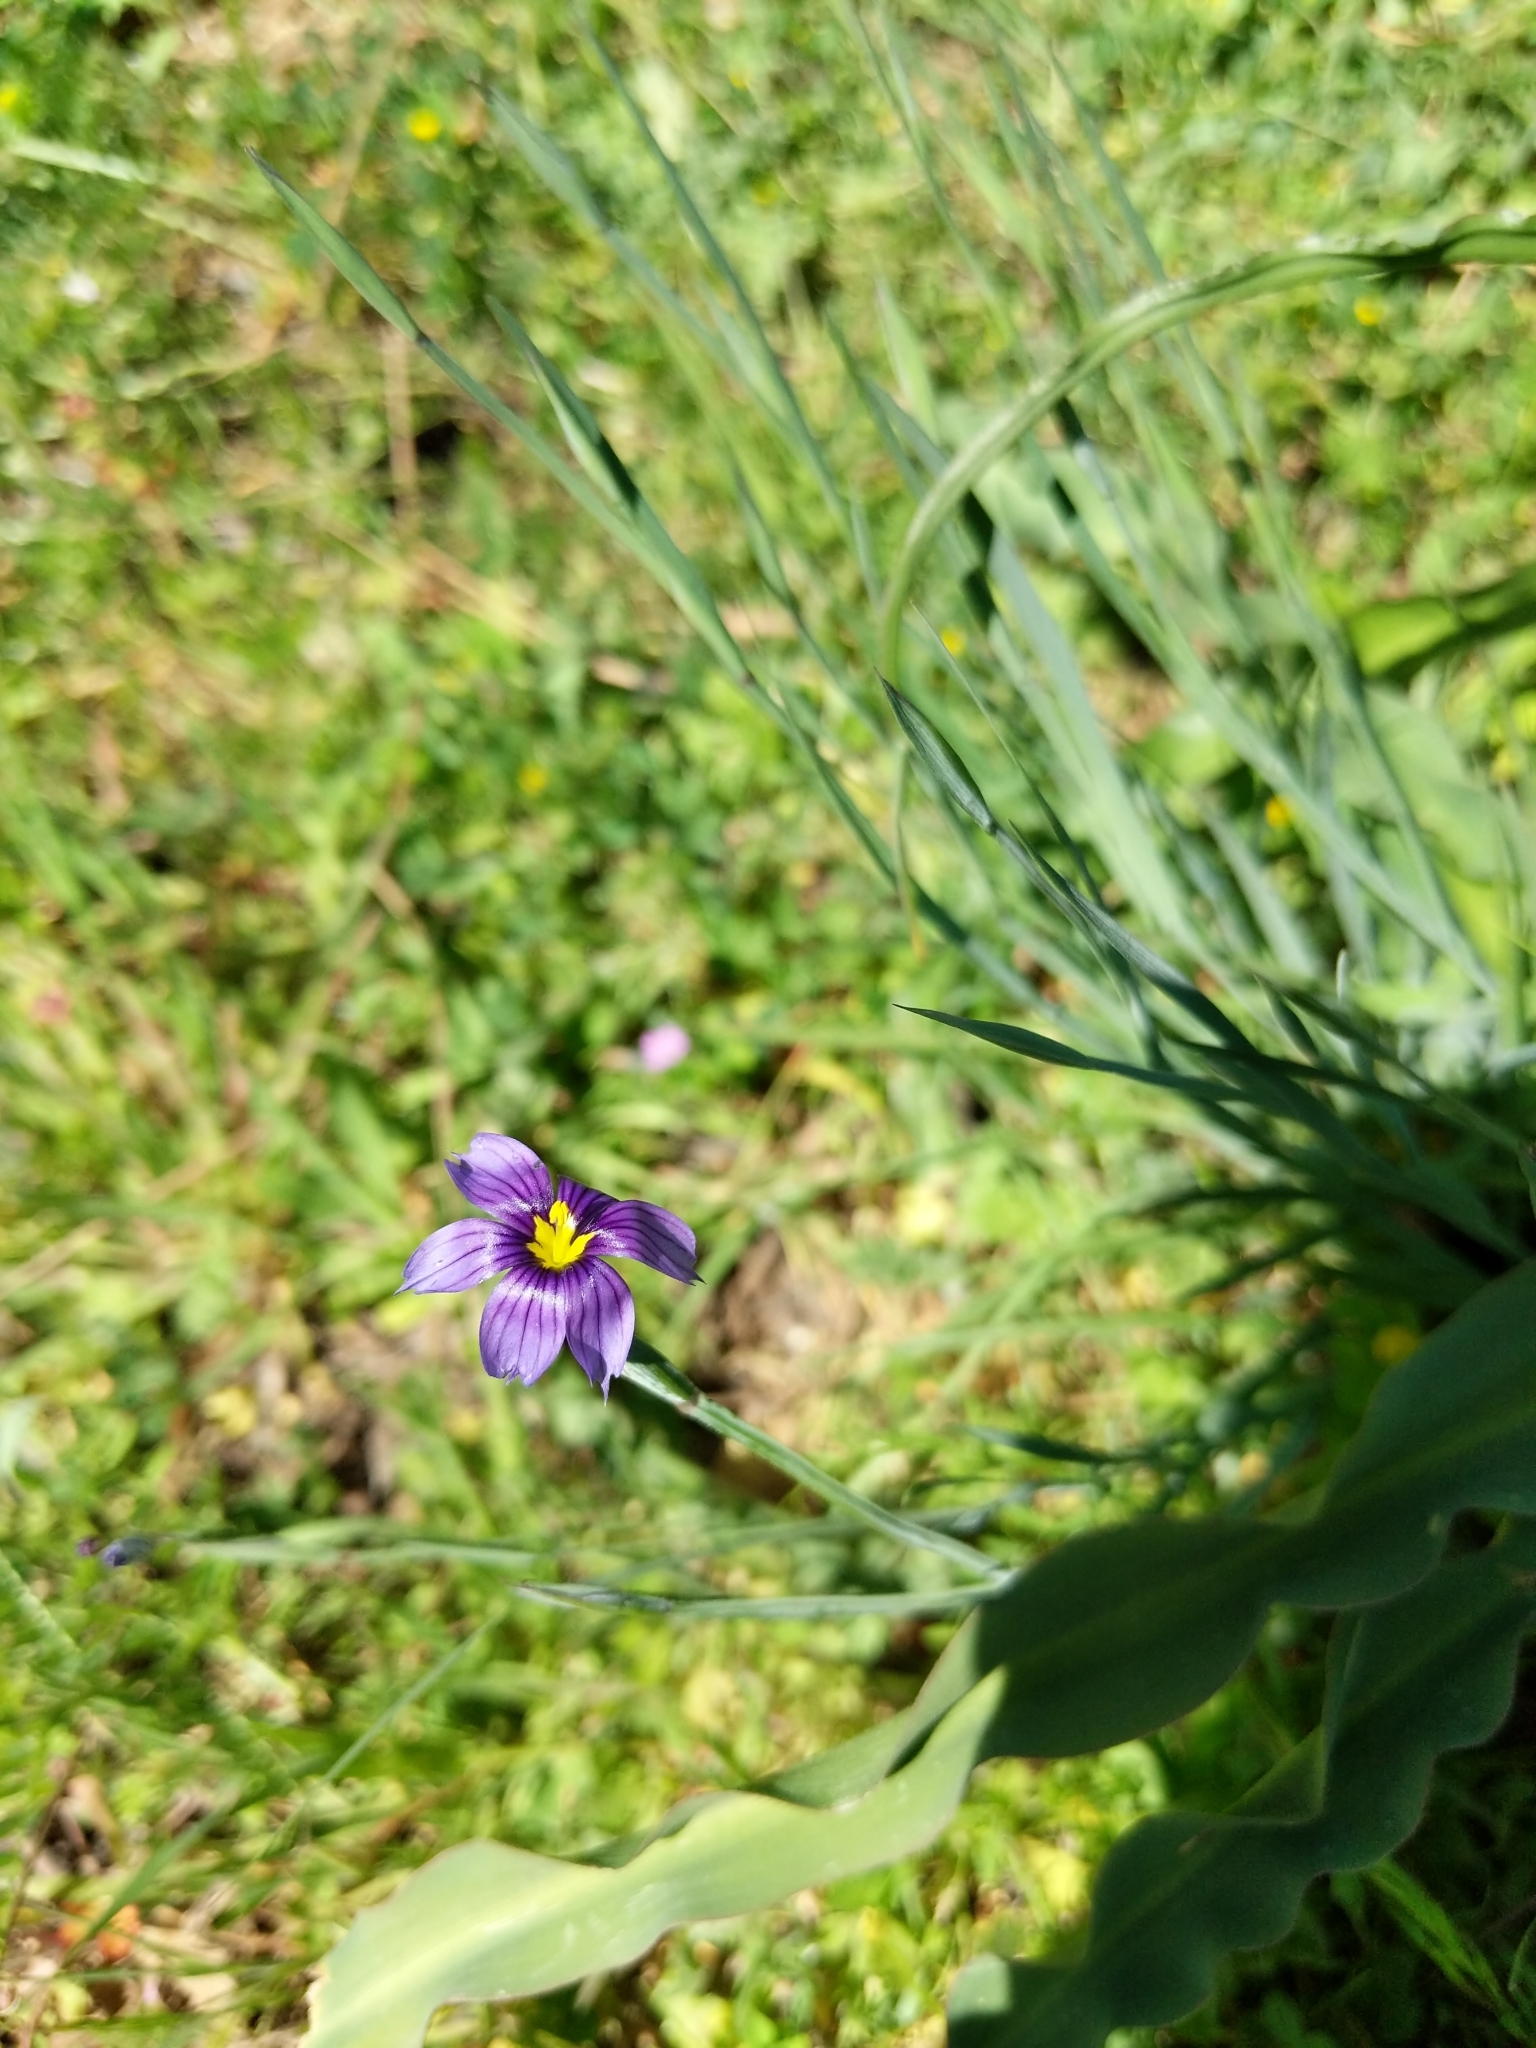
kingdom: Plantae
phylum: Tracheophyta
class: Liliopsida
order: Asparagales
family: Iridaceae
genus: Sisyrinchium
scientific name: Sisyrinchium bellum
